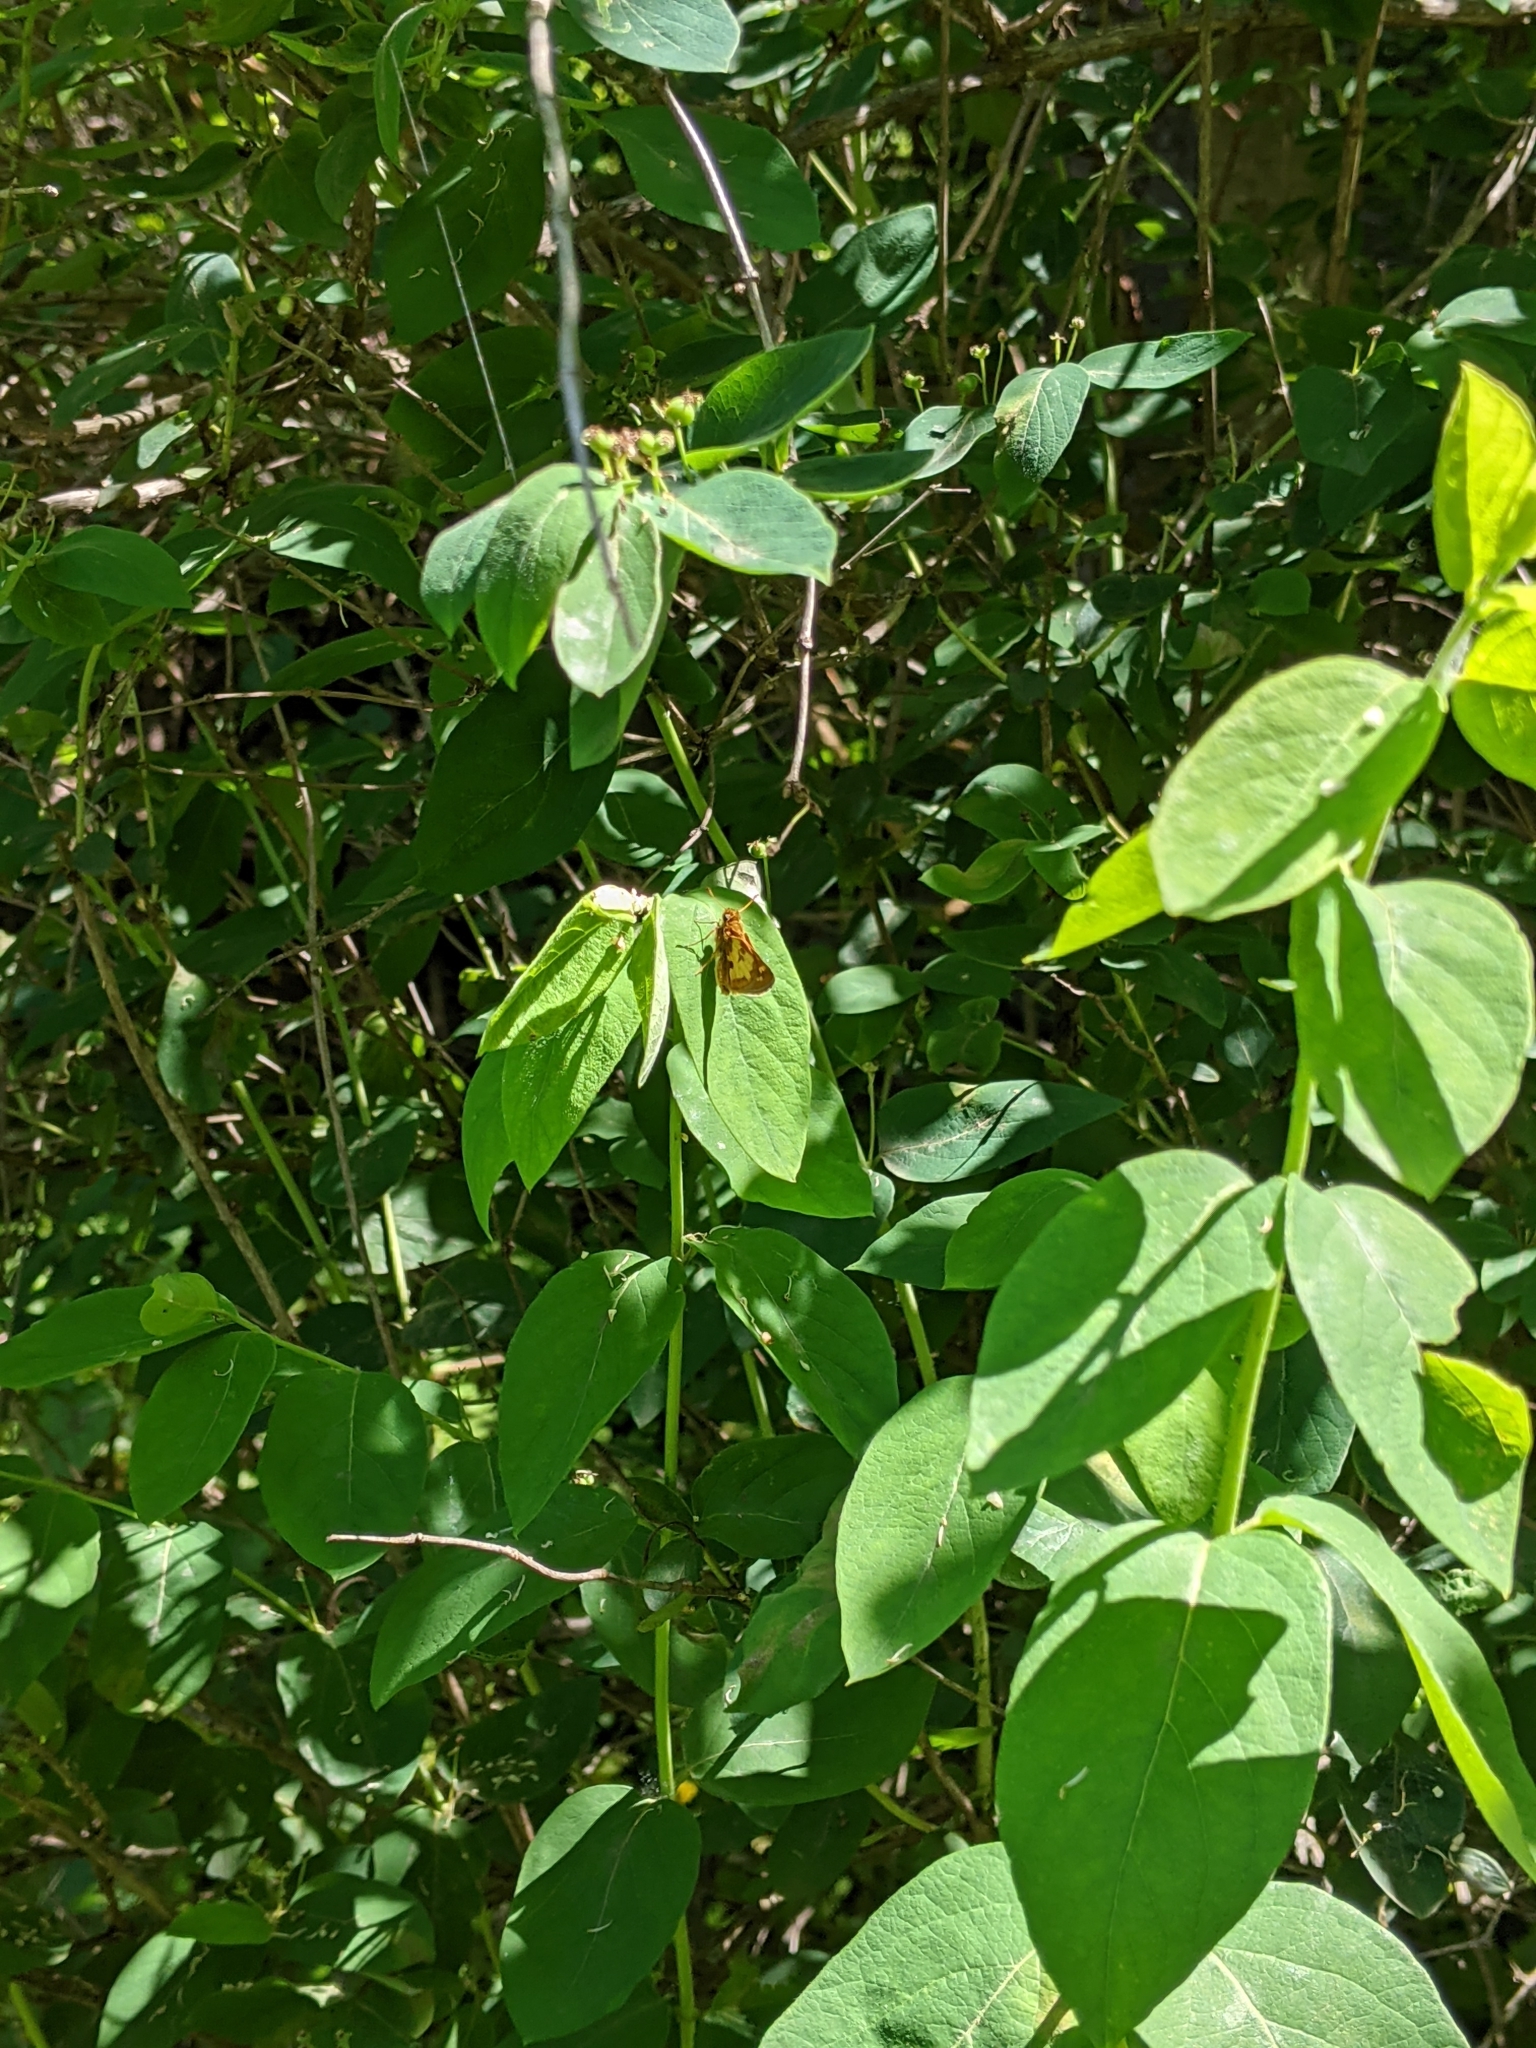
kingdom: Animalia
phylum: Arthropoda
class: Insecta
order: Lepidoptera
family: Hesperiidae
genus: Polites
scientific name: Polites coras
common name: Peck's skipper
